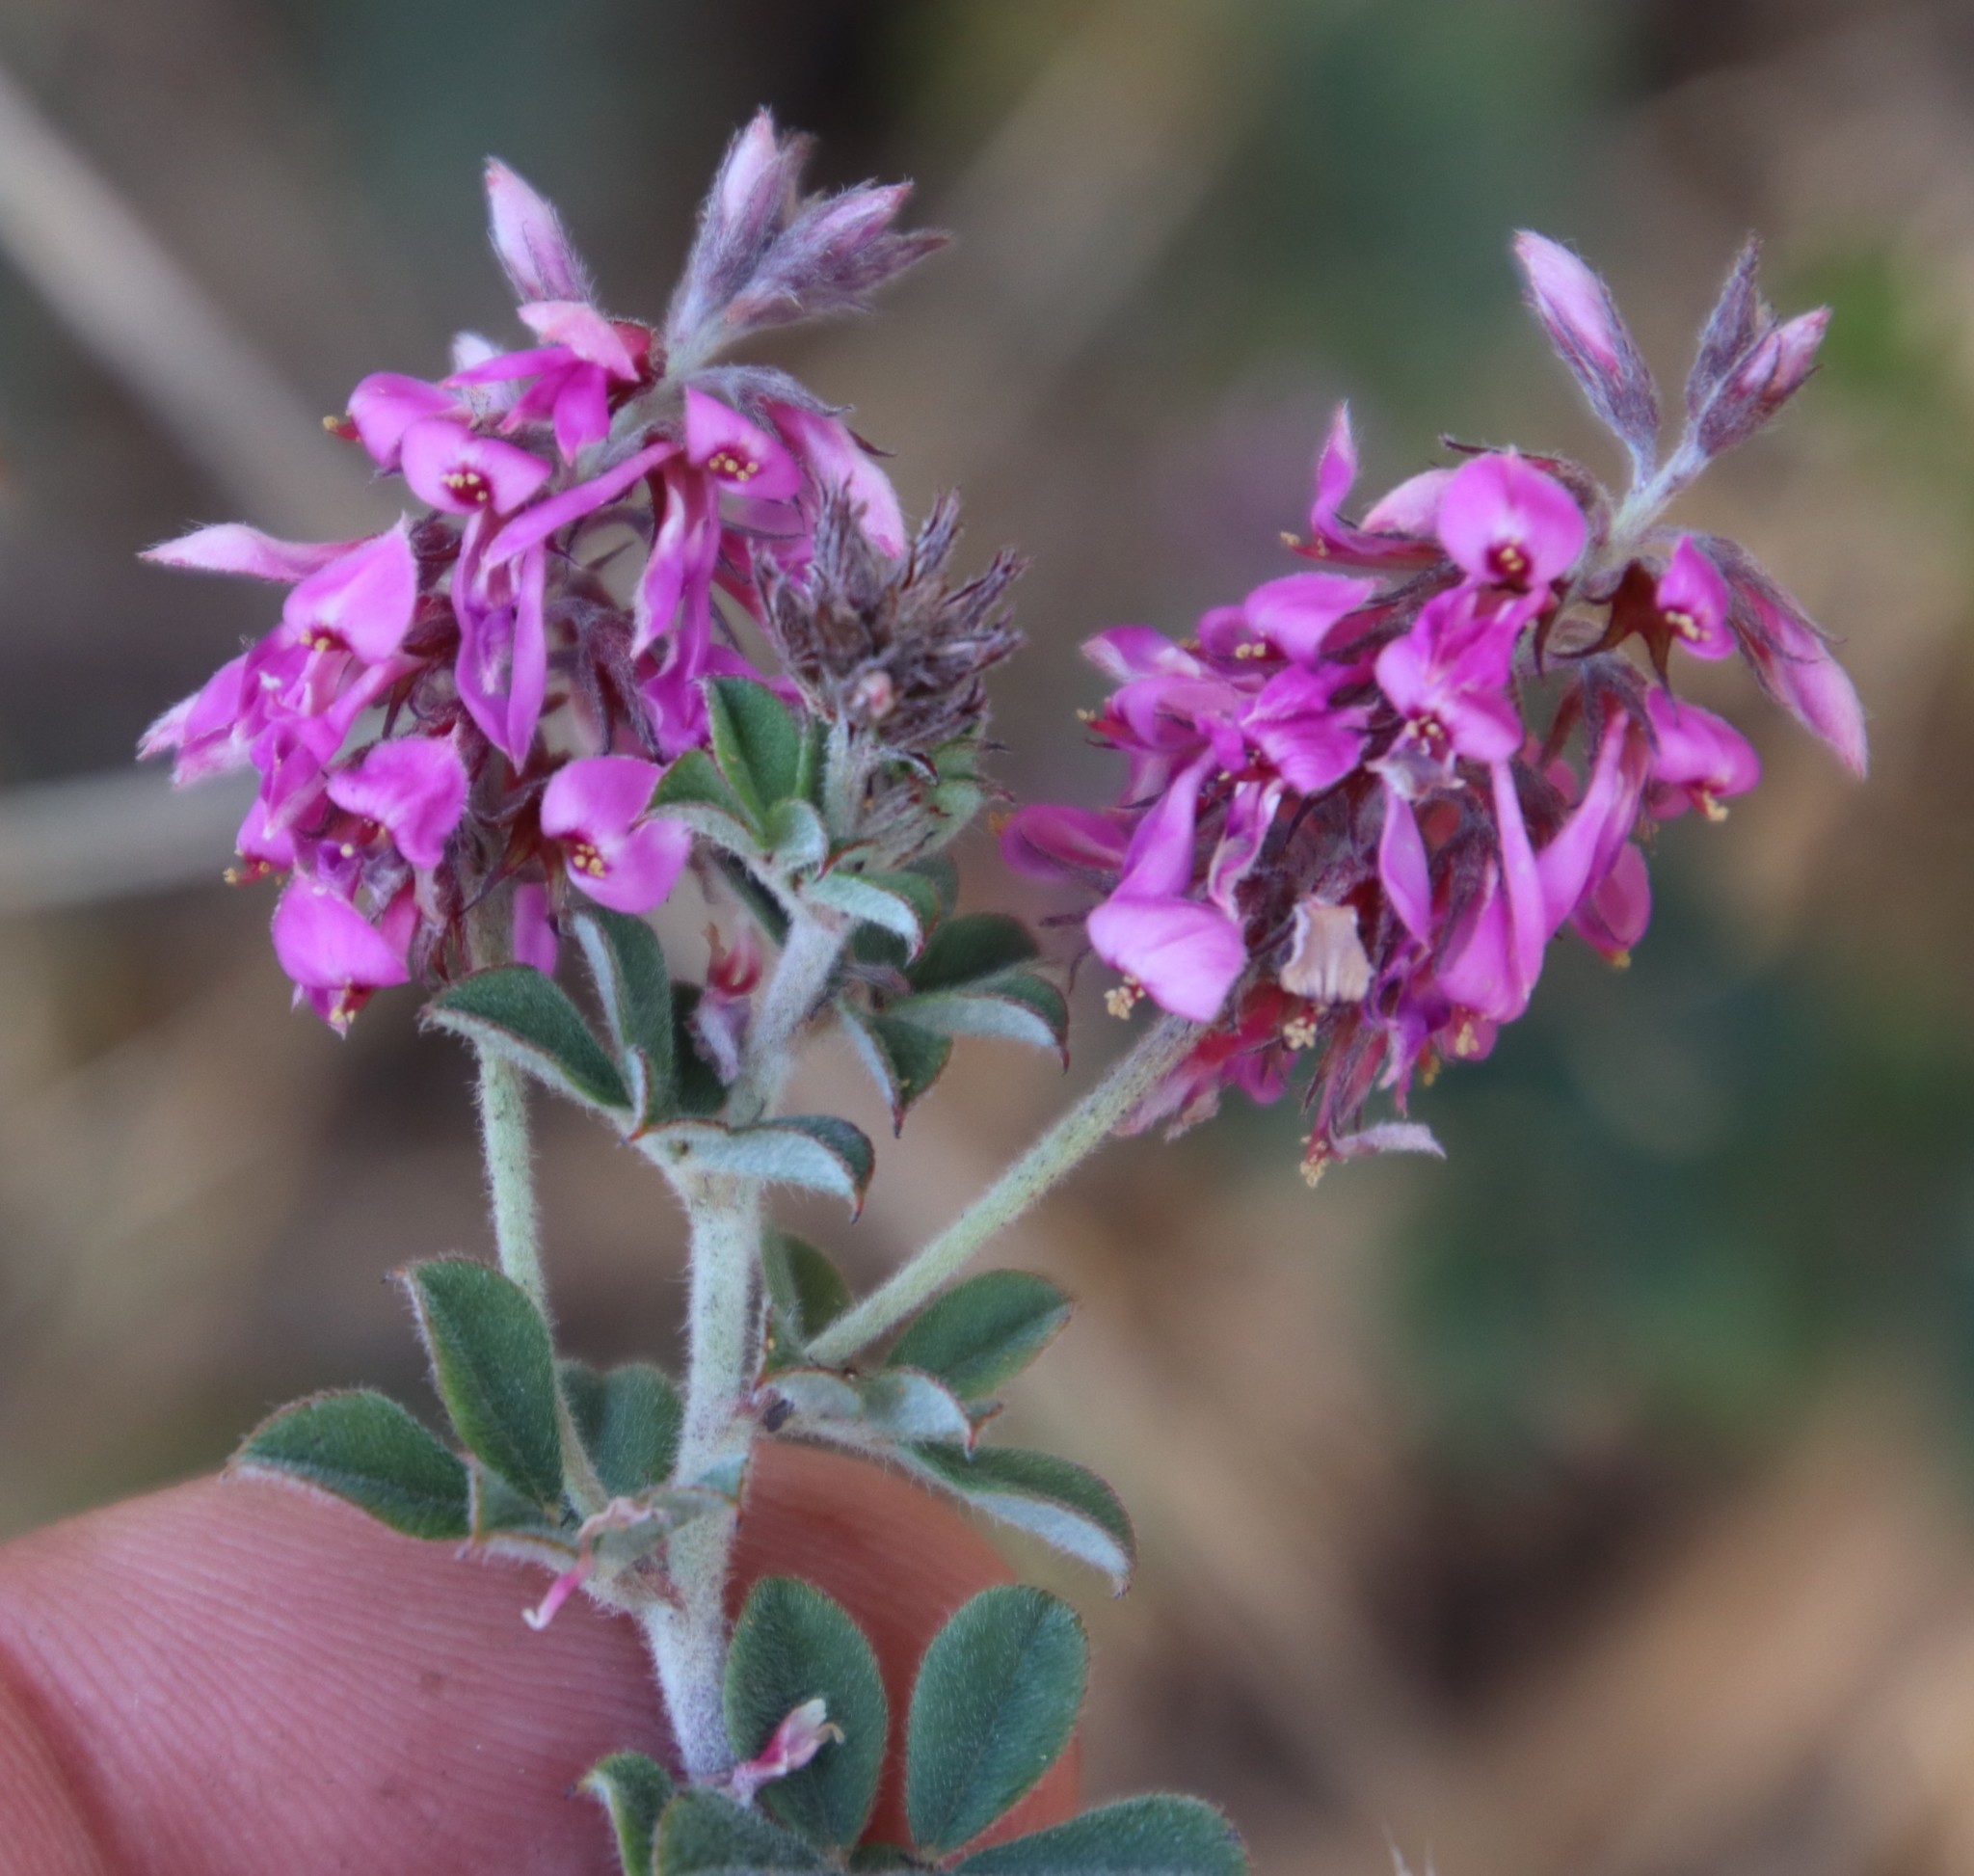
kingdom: Plantae
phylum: Tracheophyta
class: Magnoliopsida
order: Fabales
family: Fabaceae
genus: Indigofera
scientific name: Indigofera mauritanica
